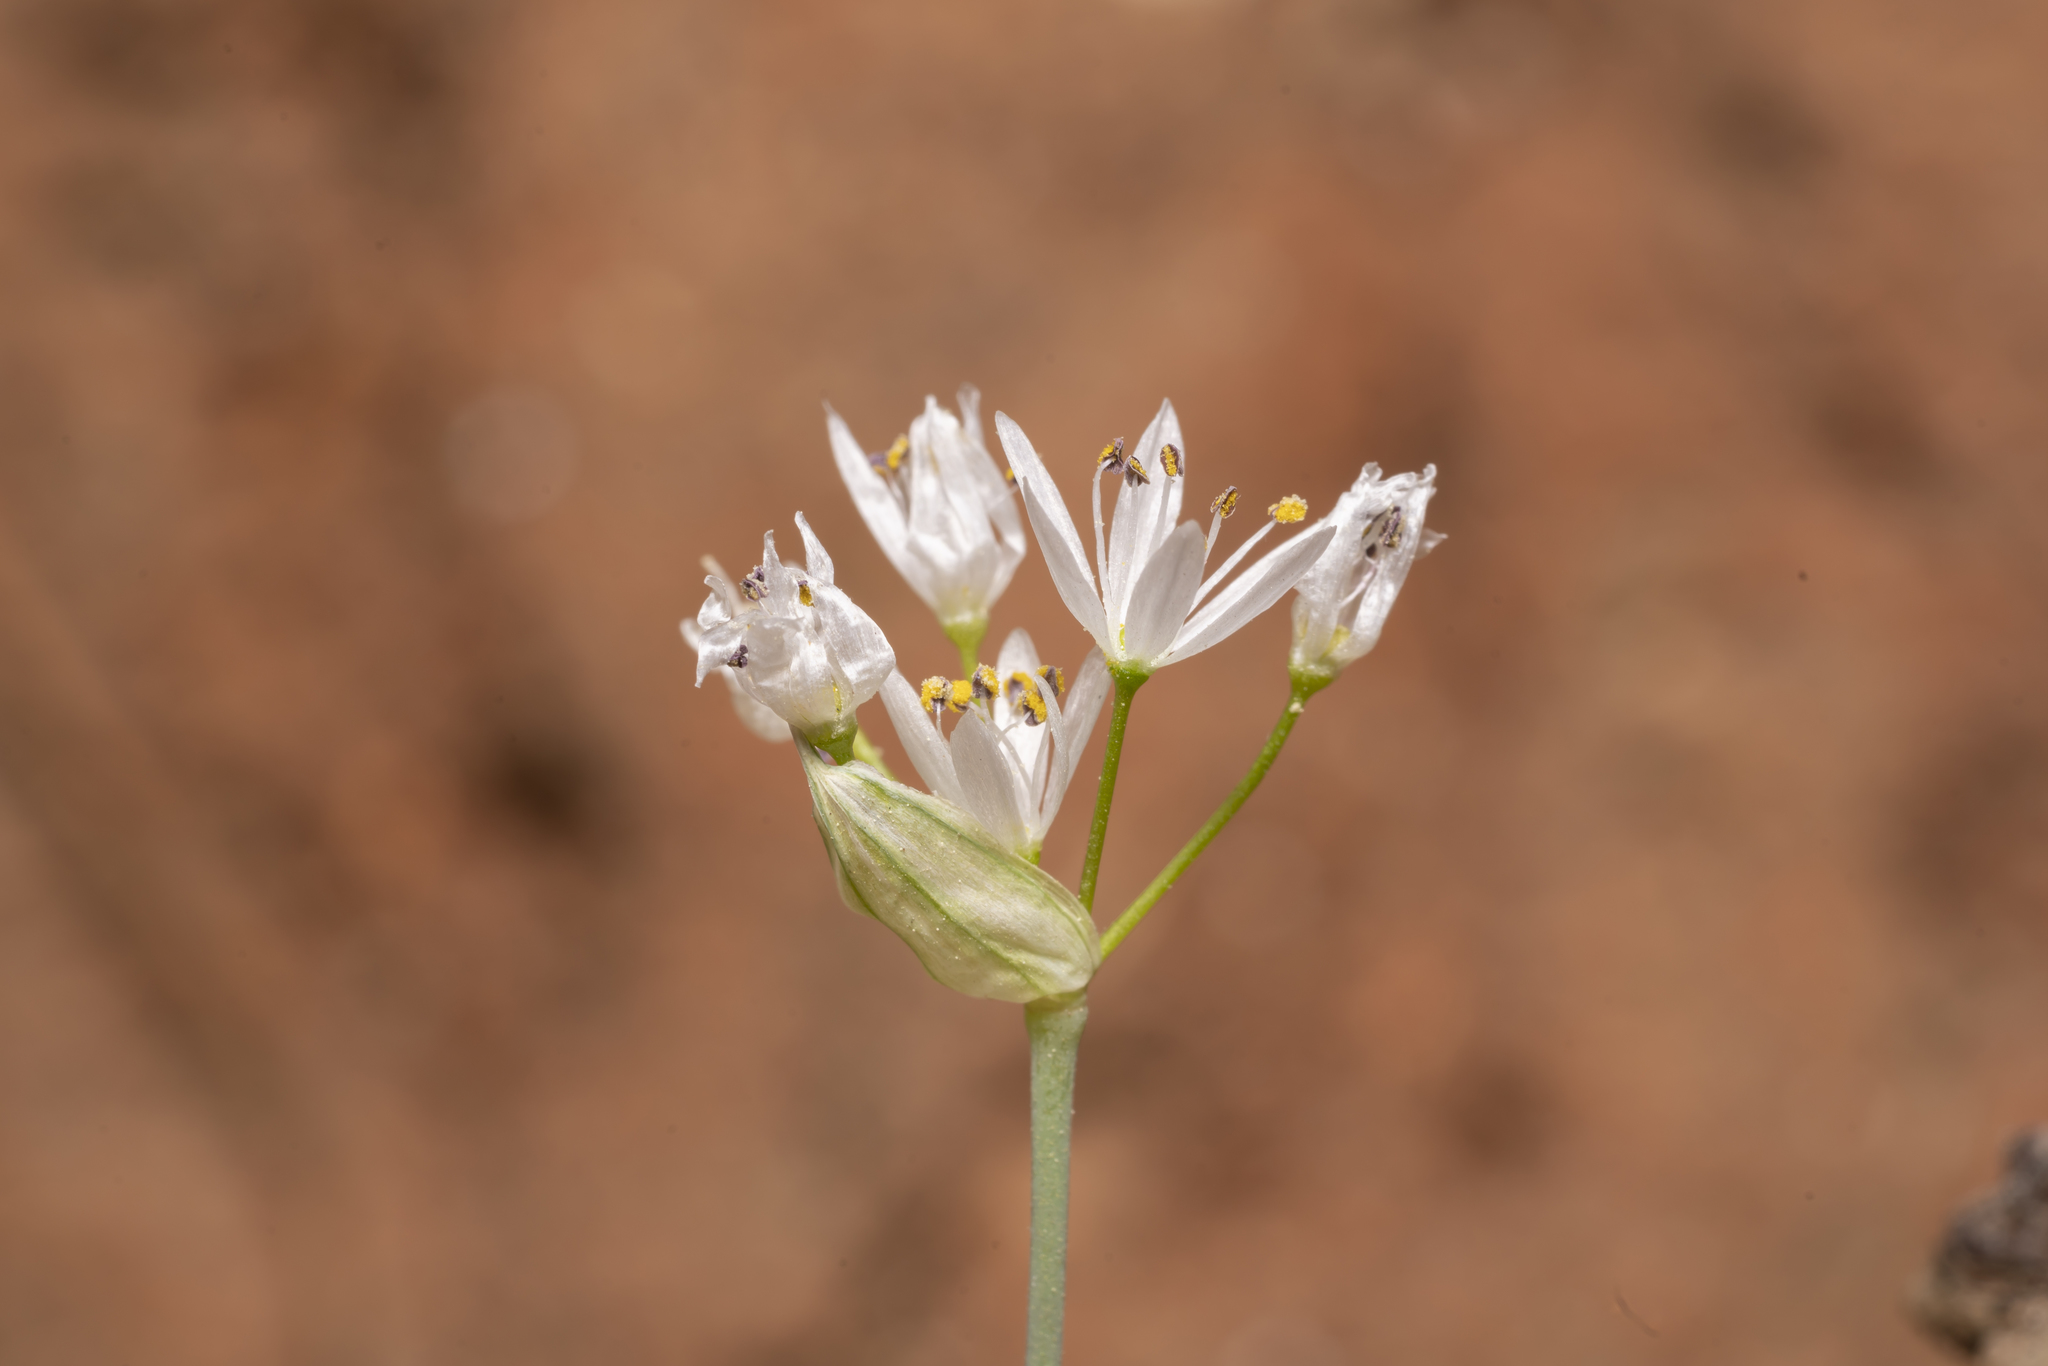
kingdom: Plantae
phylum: Tracheophyta
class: Liliopsida
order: Asparagales
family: Amaryllidaceae
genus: Allium
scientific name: Allium subhirsutum
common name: Hairy garlic
